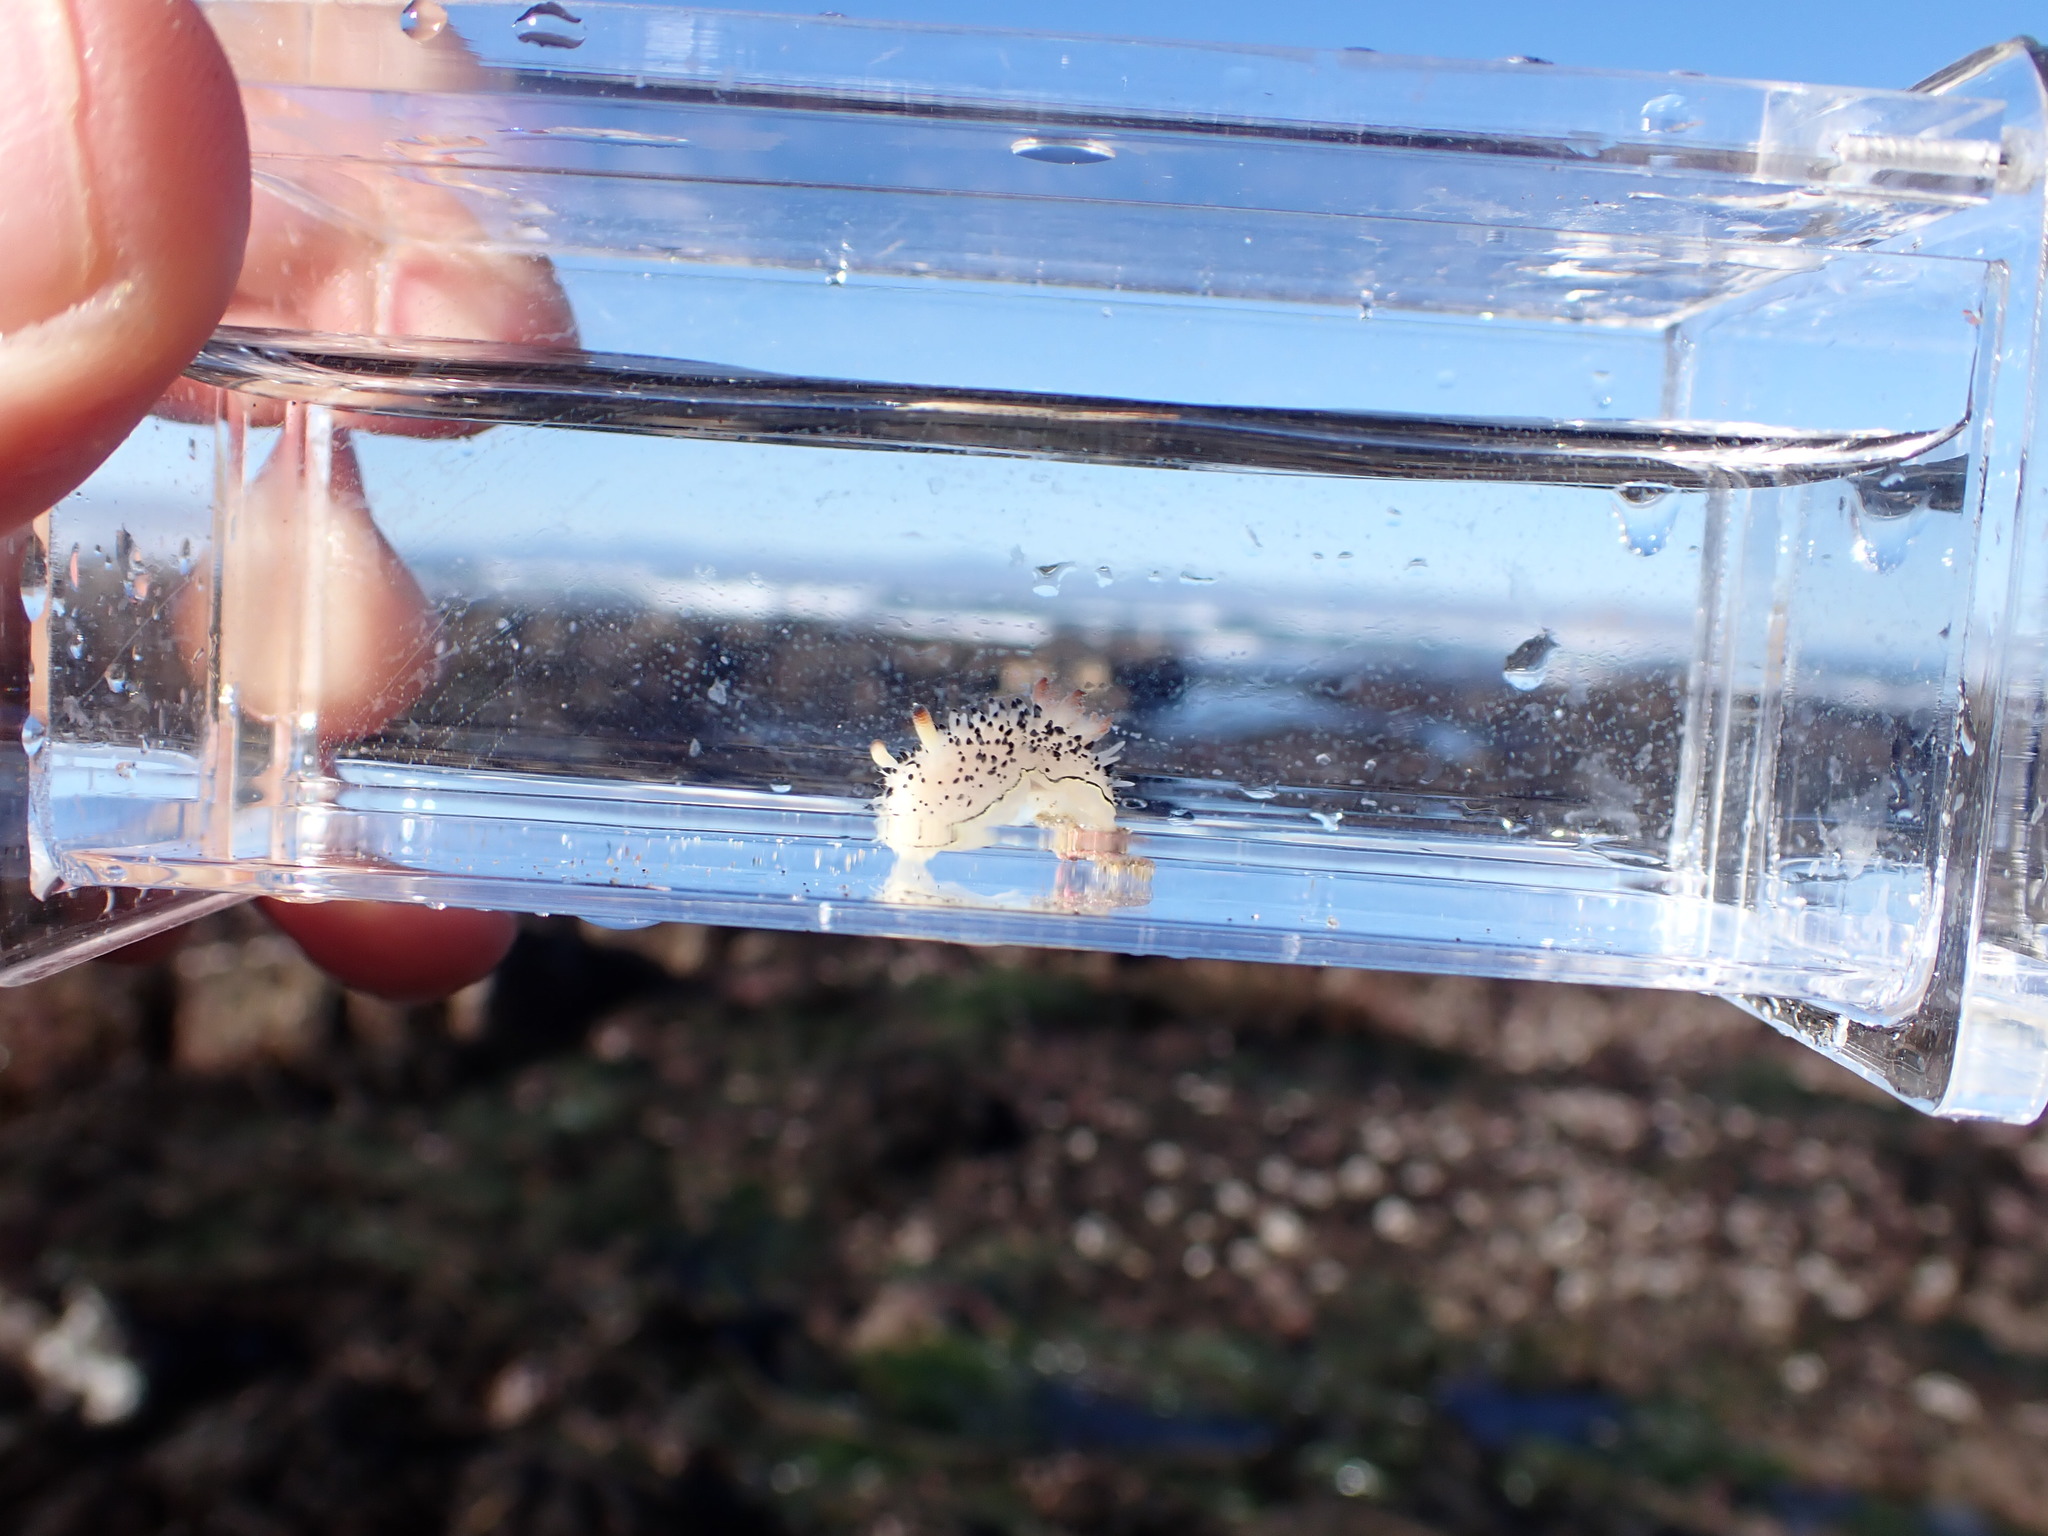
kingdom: Animalia
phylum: Mollusca
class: Gastropoda
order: Nudibranchia
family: Onchidorididae
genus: Acanthodoris
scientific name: Acanthodoris rhodoceras
